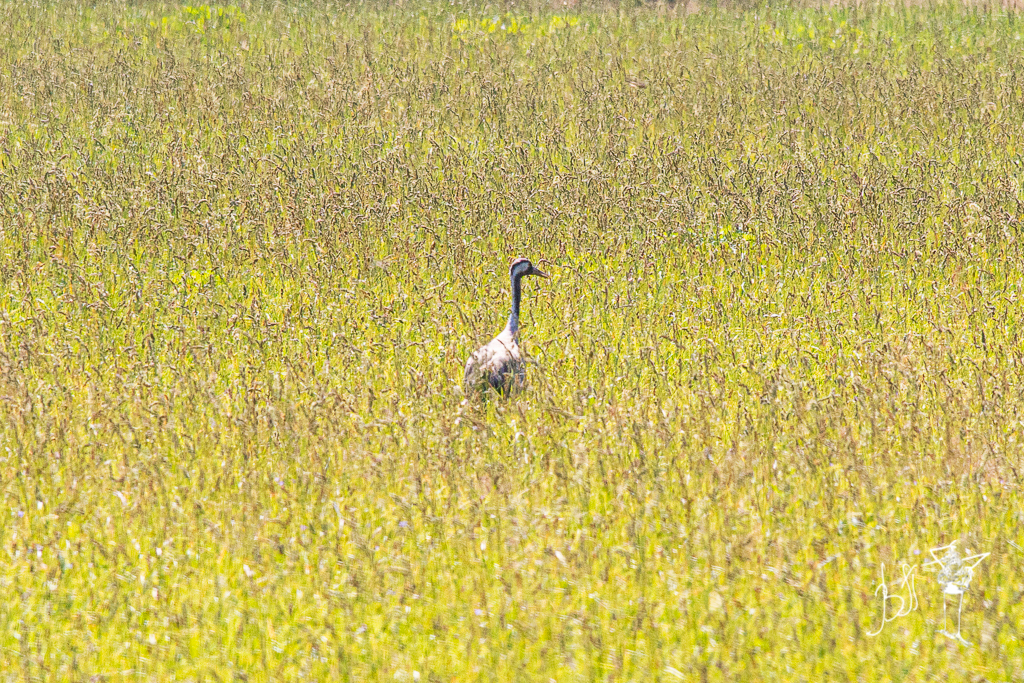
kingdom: Animalia
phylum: Chordata
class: Aves
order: Gruiformes
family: Gruidae
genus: Grus
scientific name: Grus grus
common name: Common crane
